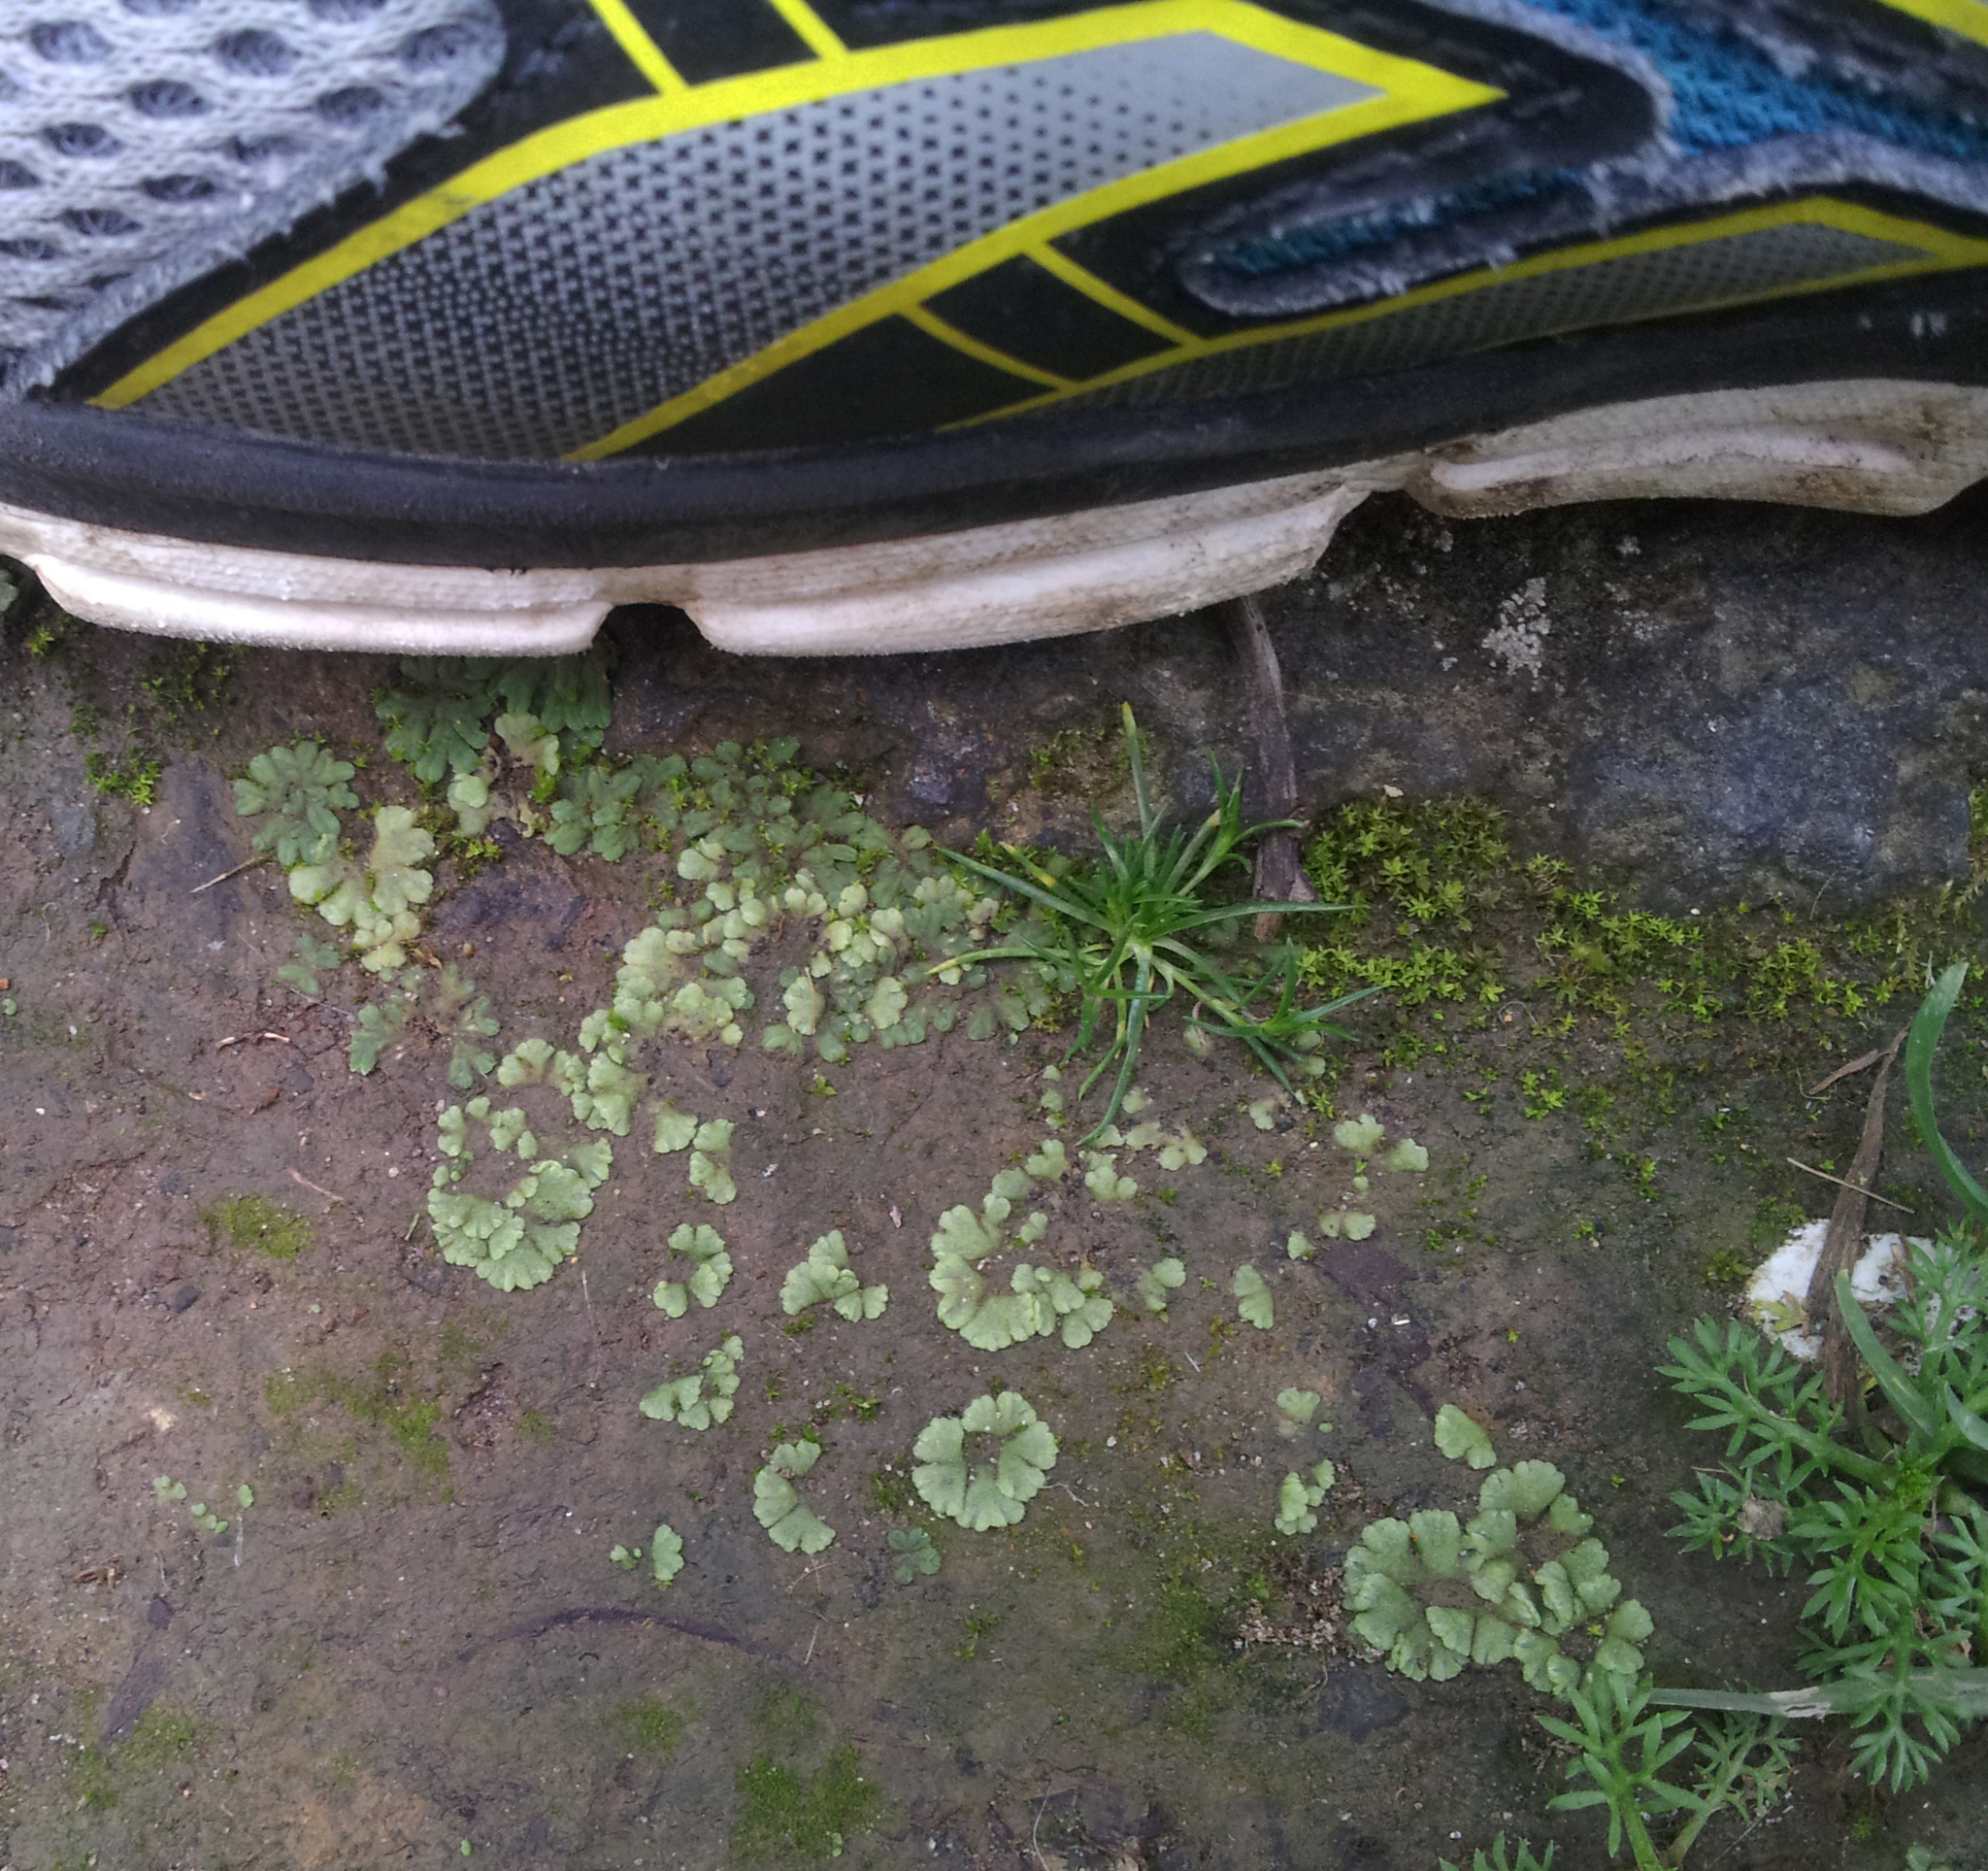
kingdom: Plantae
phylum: Marchantiophyta
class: Marchantiopsida
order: Marchantiales
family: Ricciaceae
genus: Riccia
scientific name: Riccia crystallina
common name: Blue crystalwort
